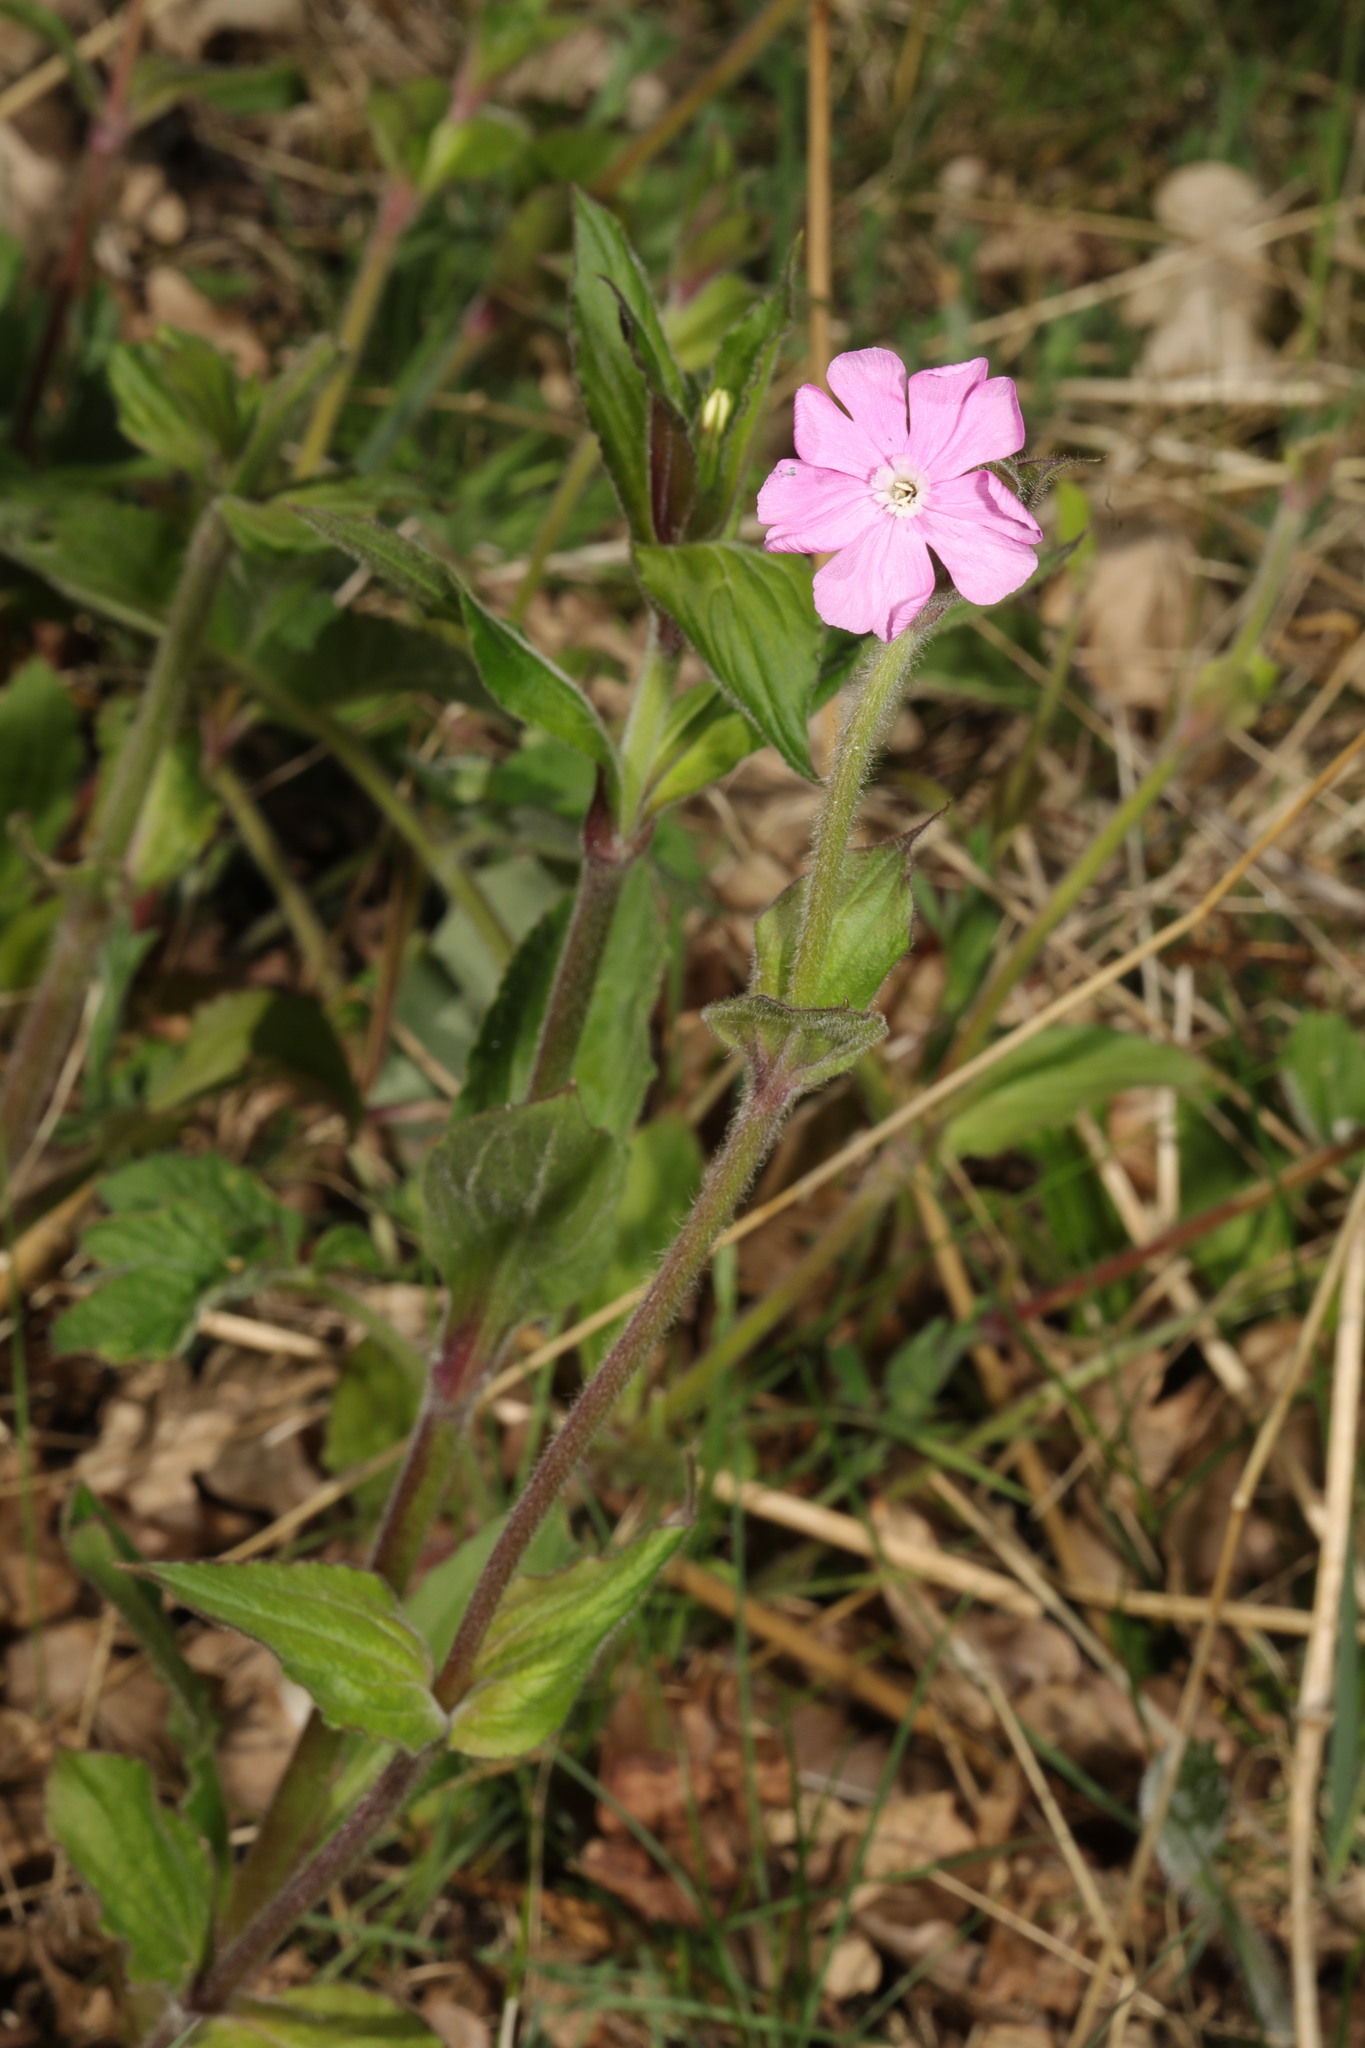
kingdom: Plantae
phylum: Tracheophyta
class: Magnoliopsida
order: Caryophyllales
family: Caryophyllaceae
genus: Silene
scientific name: Silene dioica
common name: Red campion
